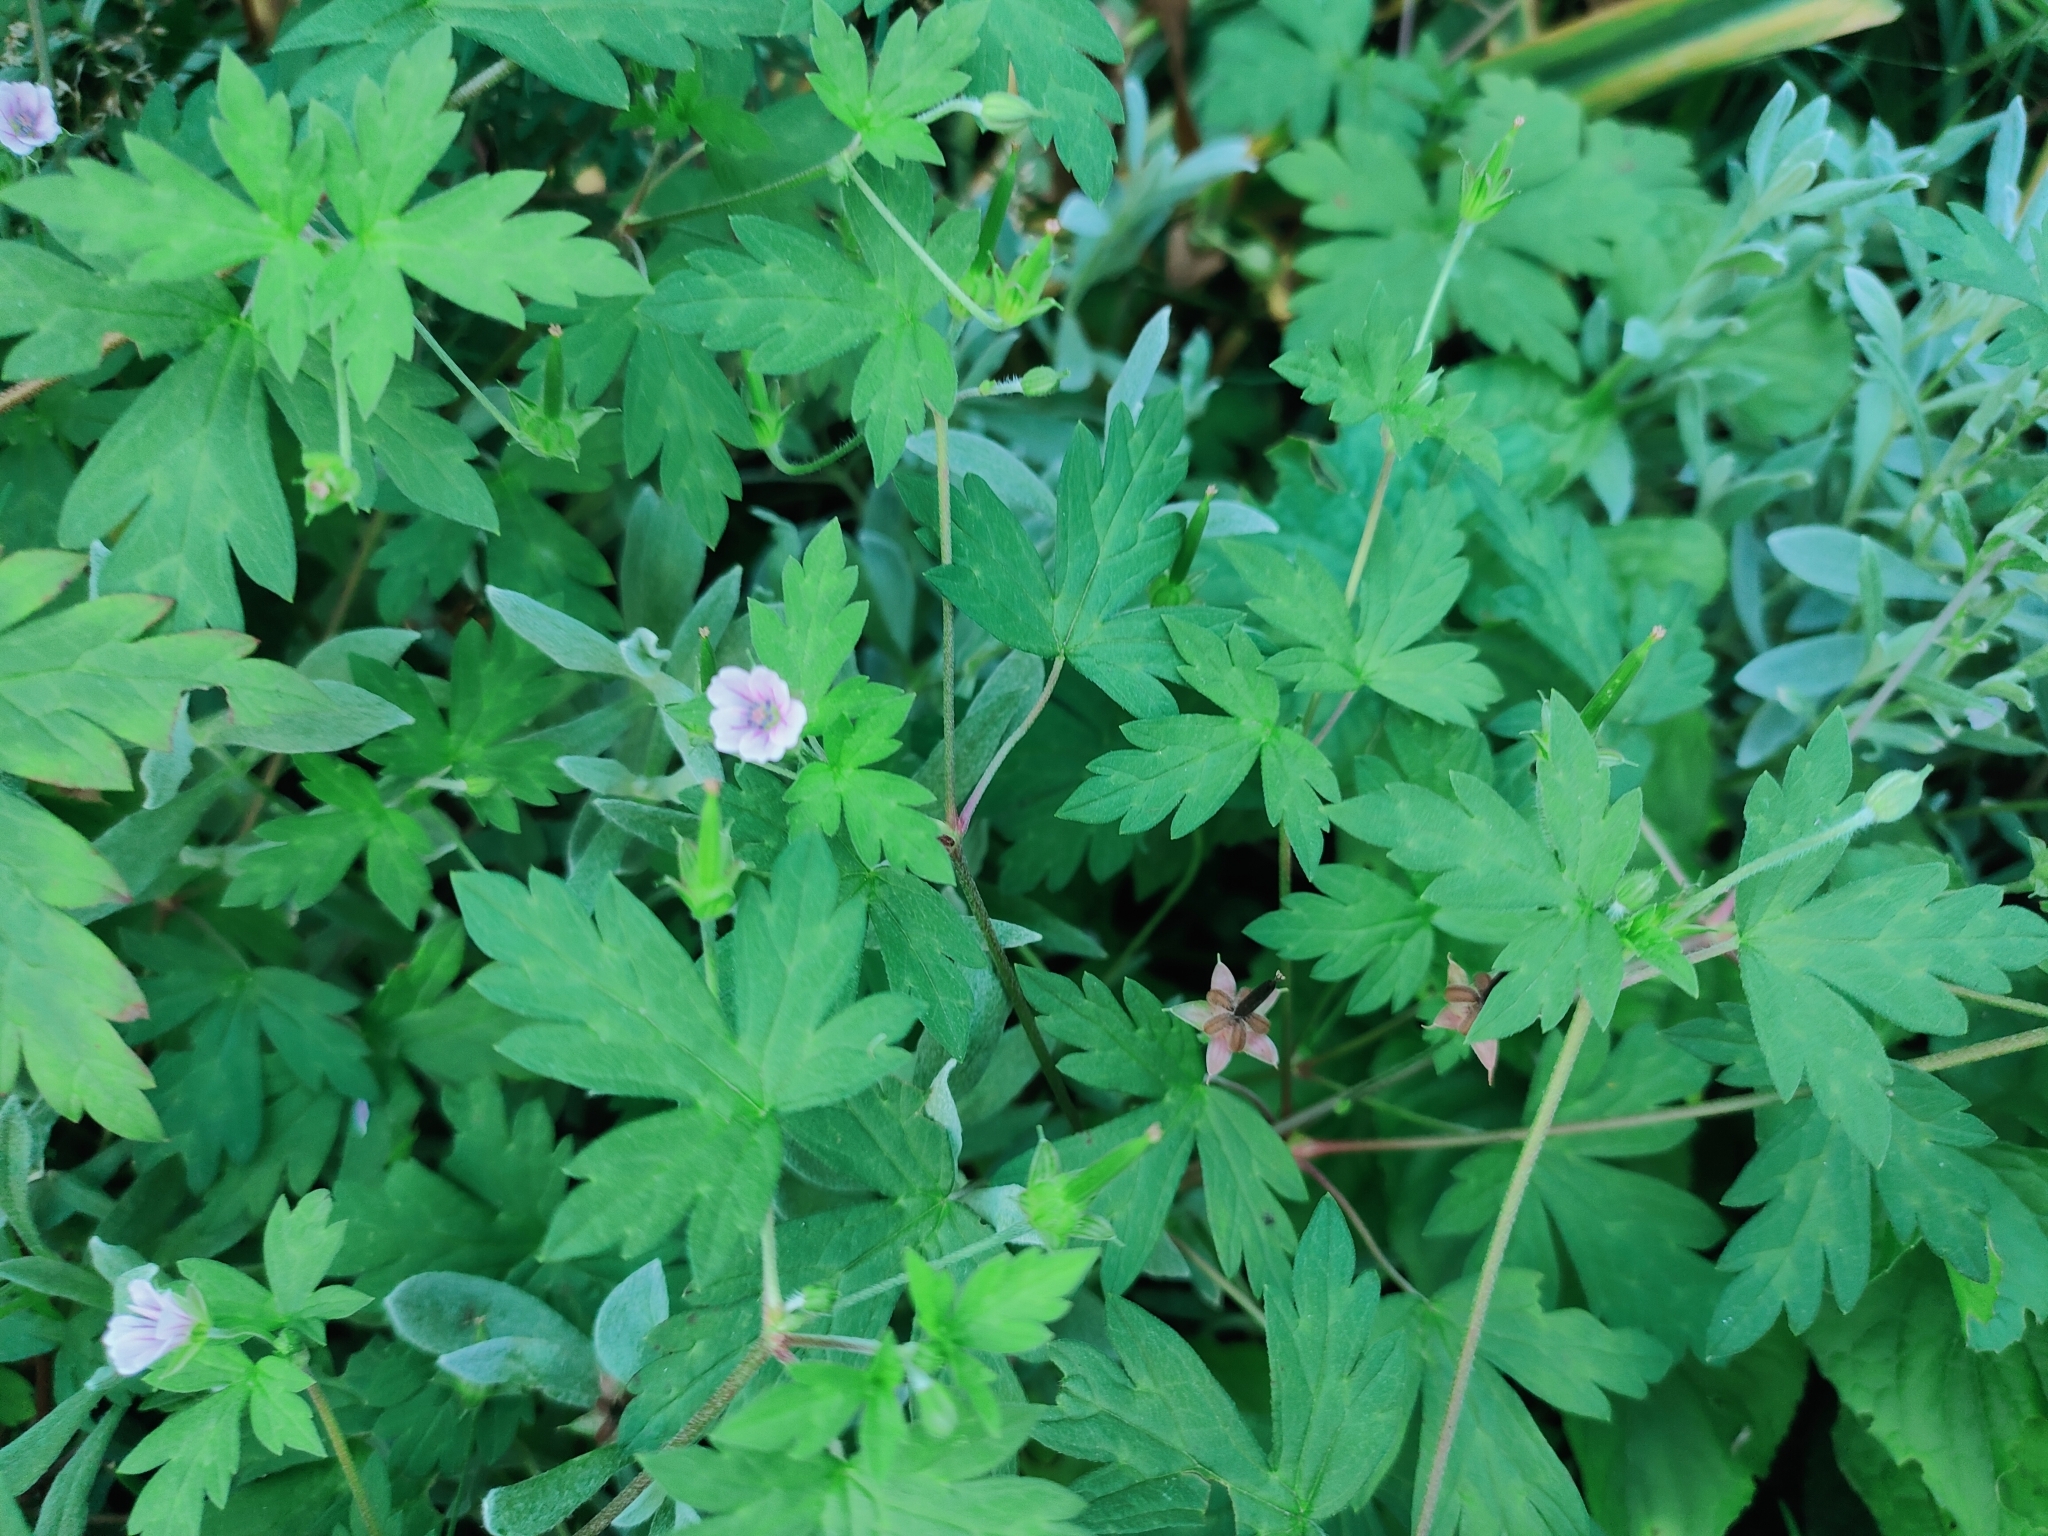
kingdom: Plantae
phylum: Tracheophyta
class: Magnoliopsida
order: Geraniales
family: Geraniaceae
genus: Geranium
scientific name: Geranium sibiricum
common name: Siberian crane's-bill
